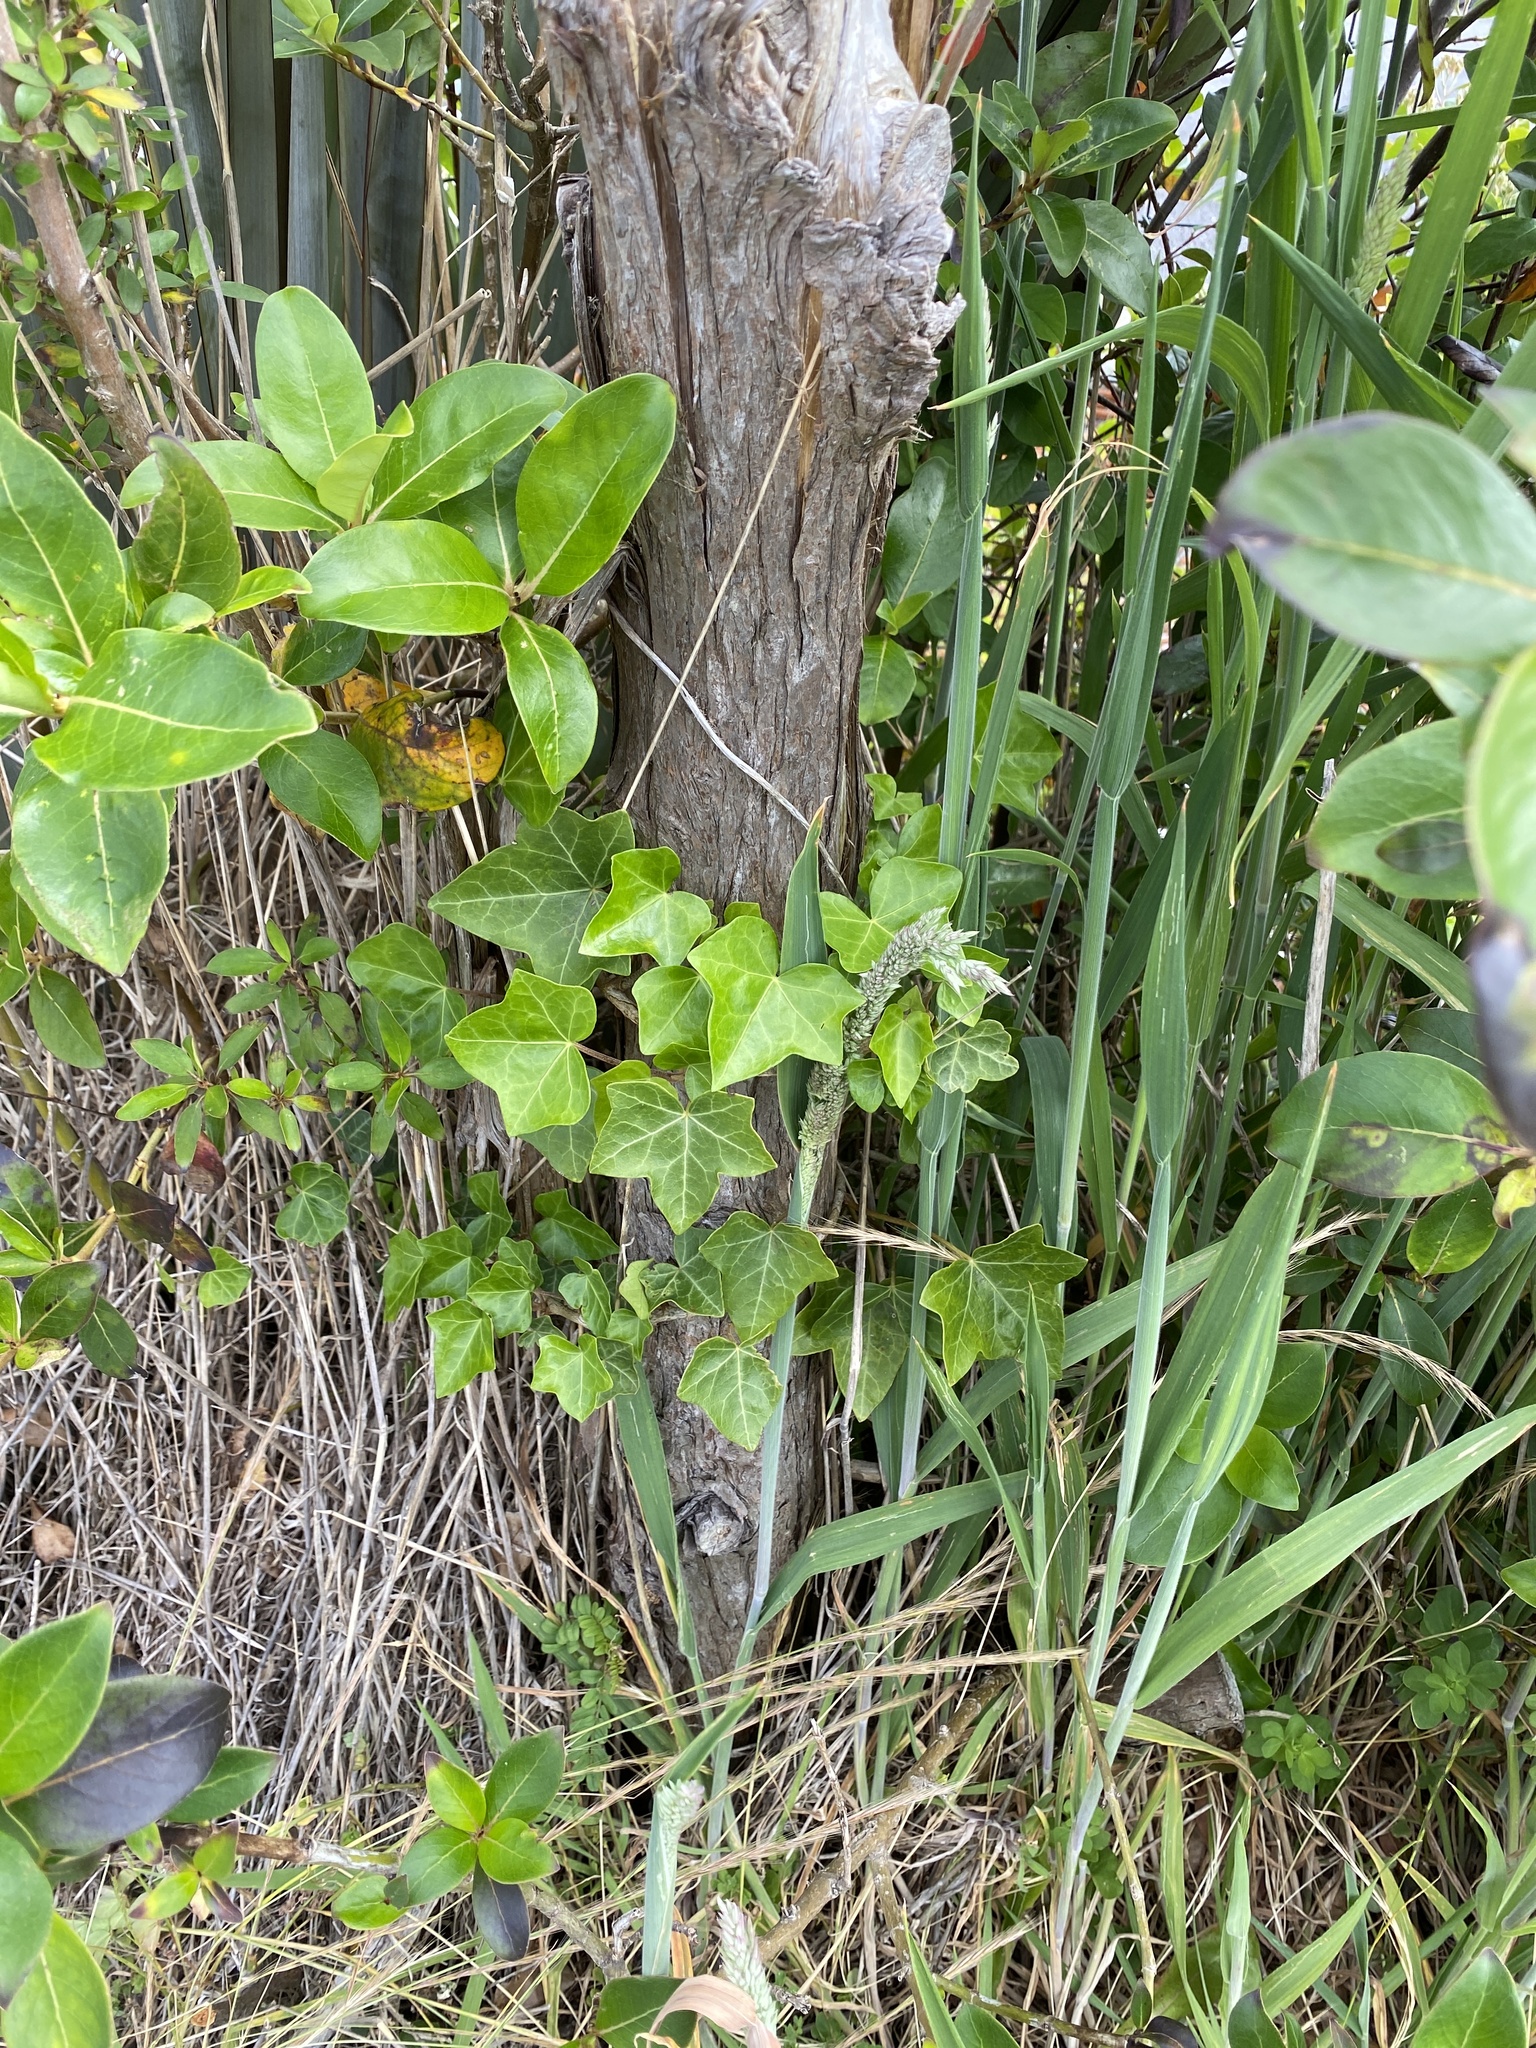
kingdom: Plantae
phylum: Tracheophyta
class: Magnoliopsida
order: Apiales
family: Araliaceae
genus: Hedera
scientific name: Hedera helix
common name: Ivy
